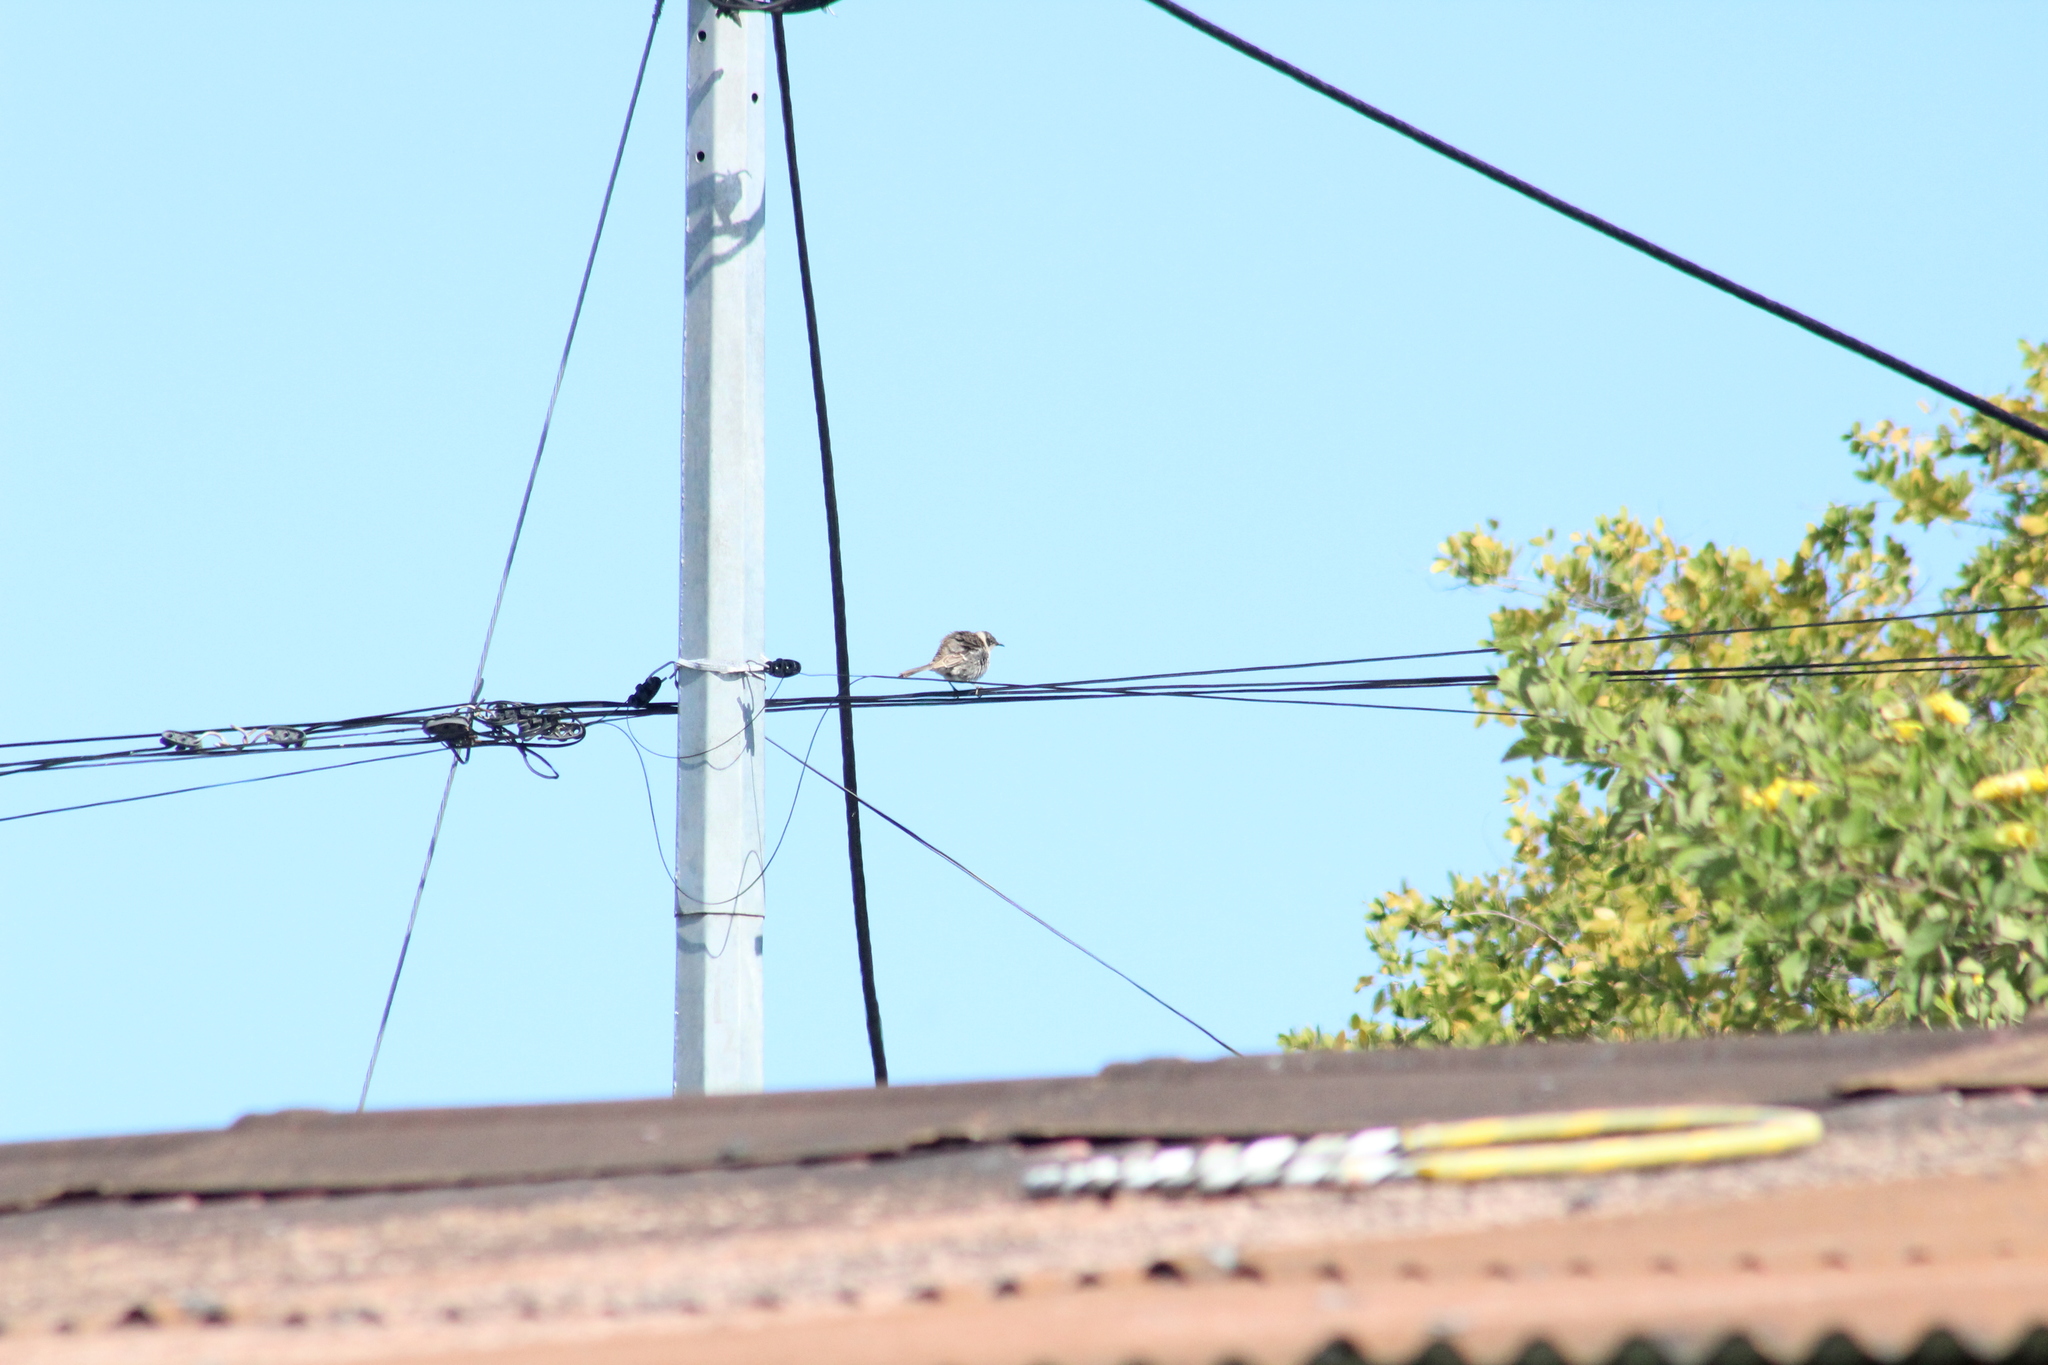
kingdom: Animalia
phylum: Chordata
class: Aves
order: Passeriformes
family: Mimidae
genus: Mimus
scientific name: Mimus parvulus
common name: Galapagos mockingbird
